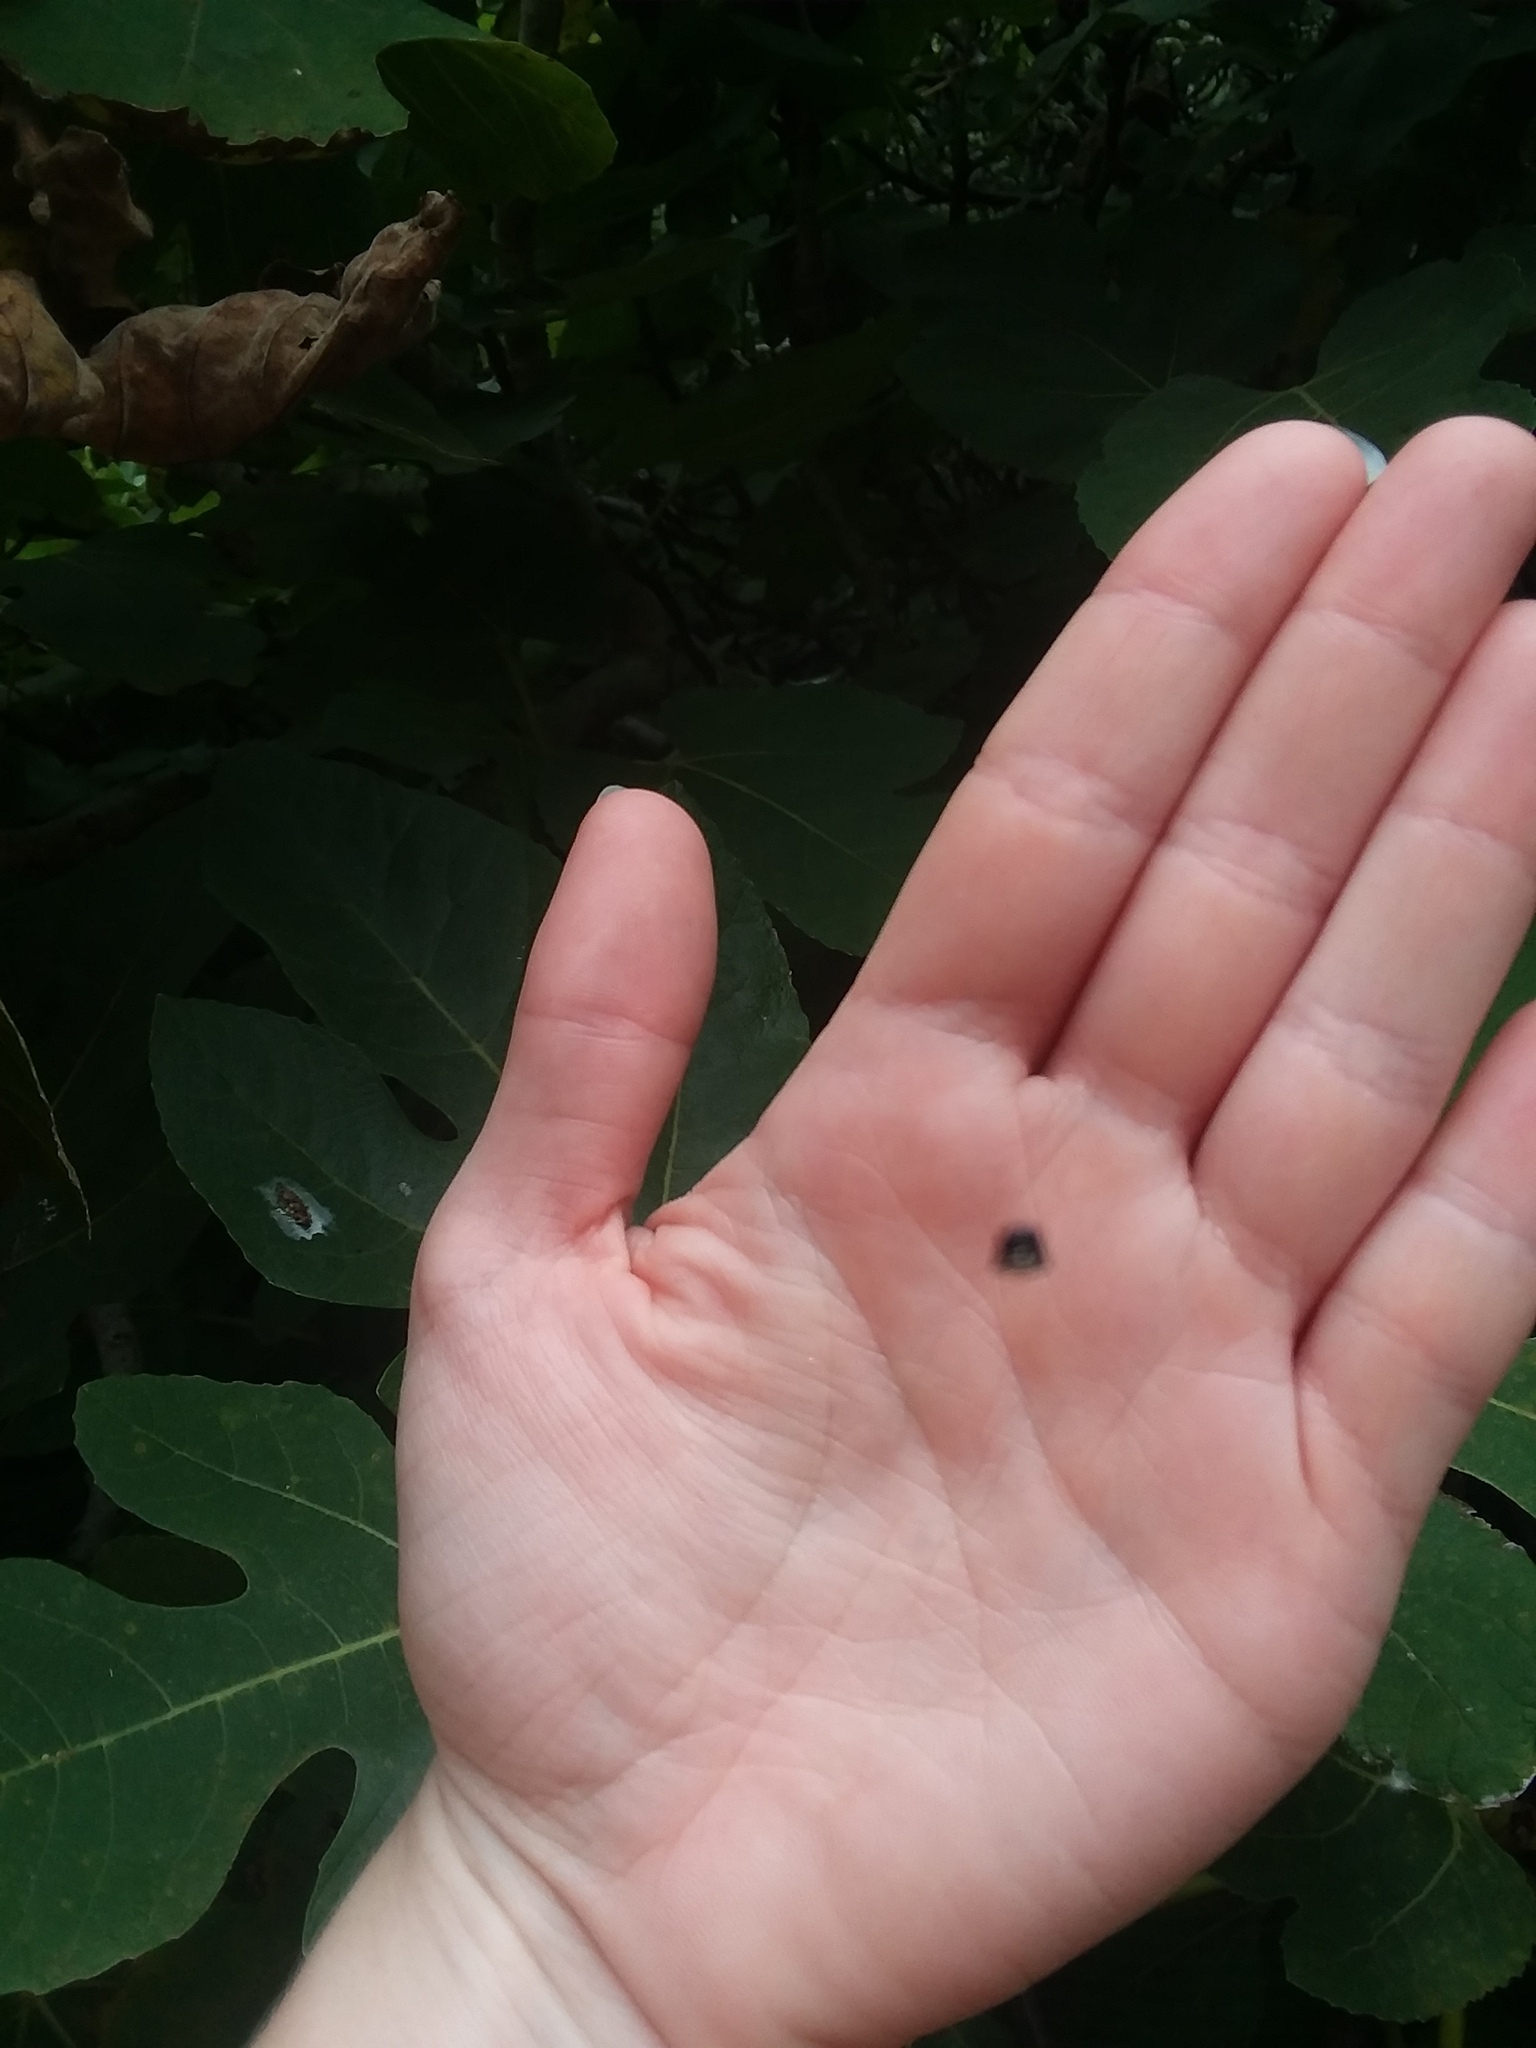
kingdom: Animalia
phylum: Arthropoda
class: Arachnida
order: Araneae
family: Araneidae
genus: Gasteracantha
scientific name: Gasteracantha cancriformis
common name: Orb weavers
